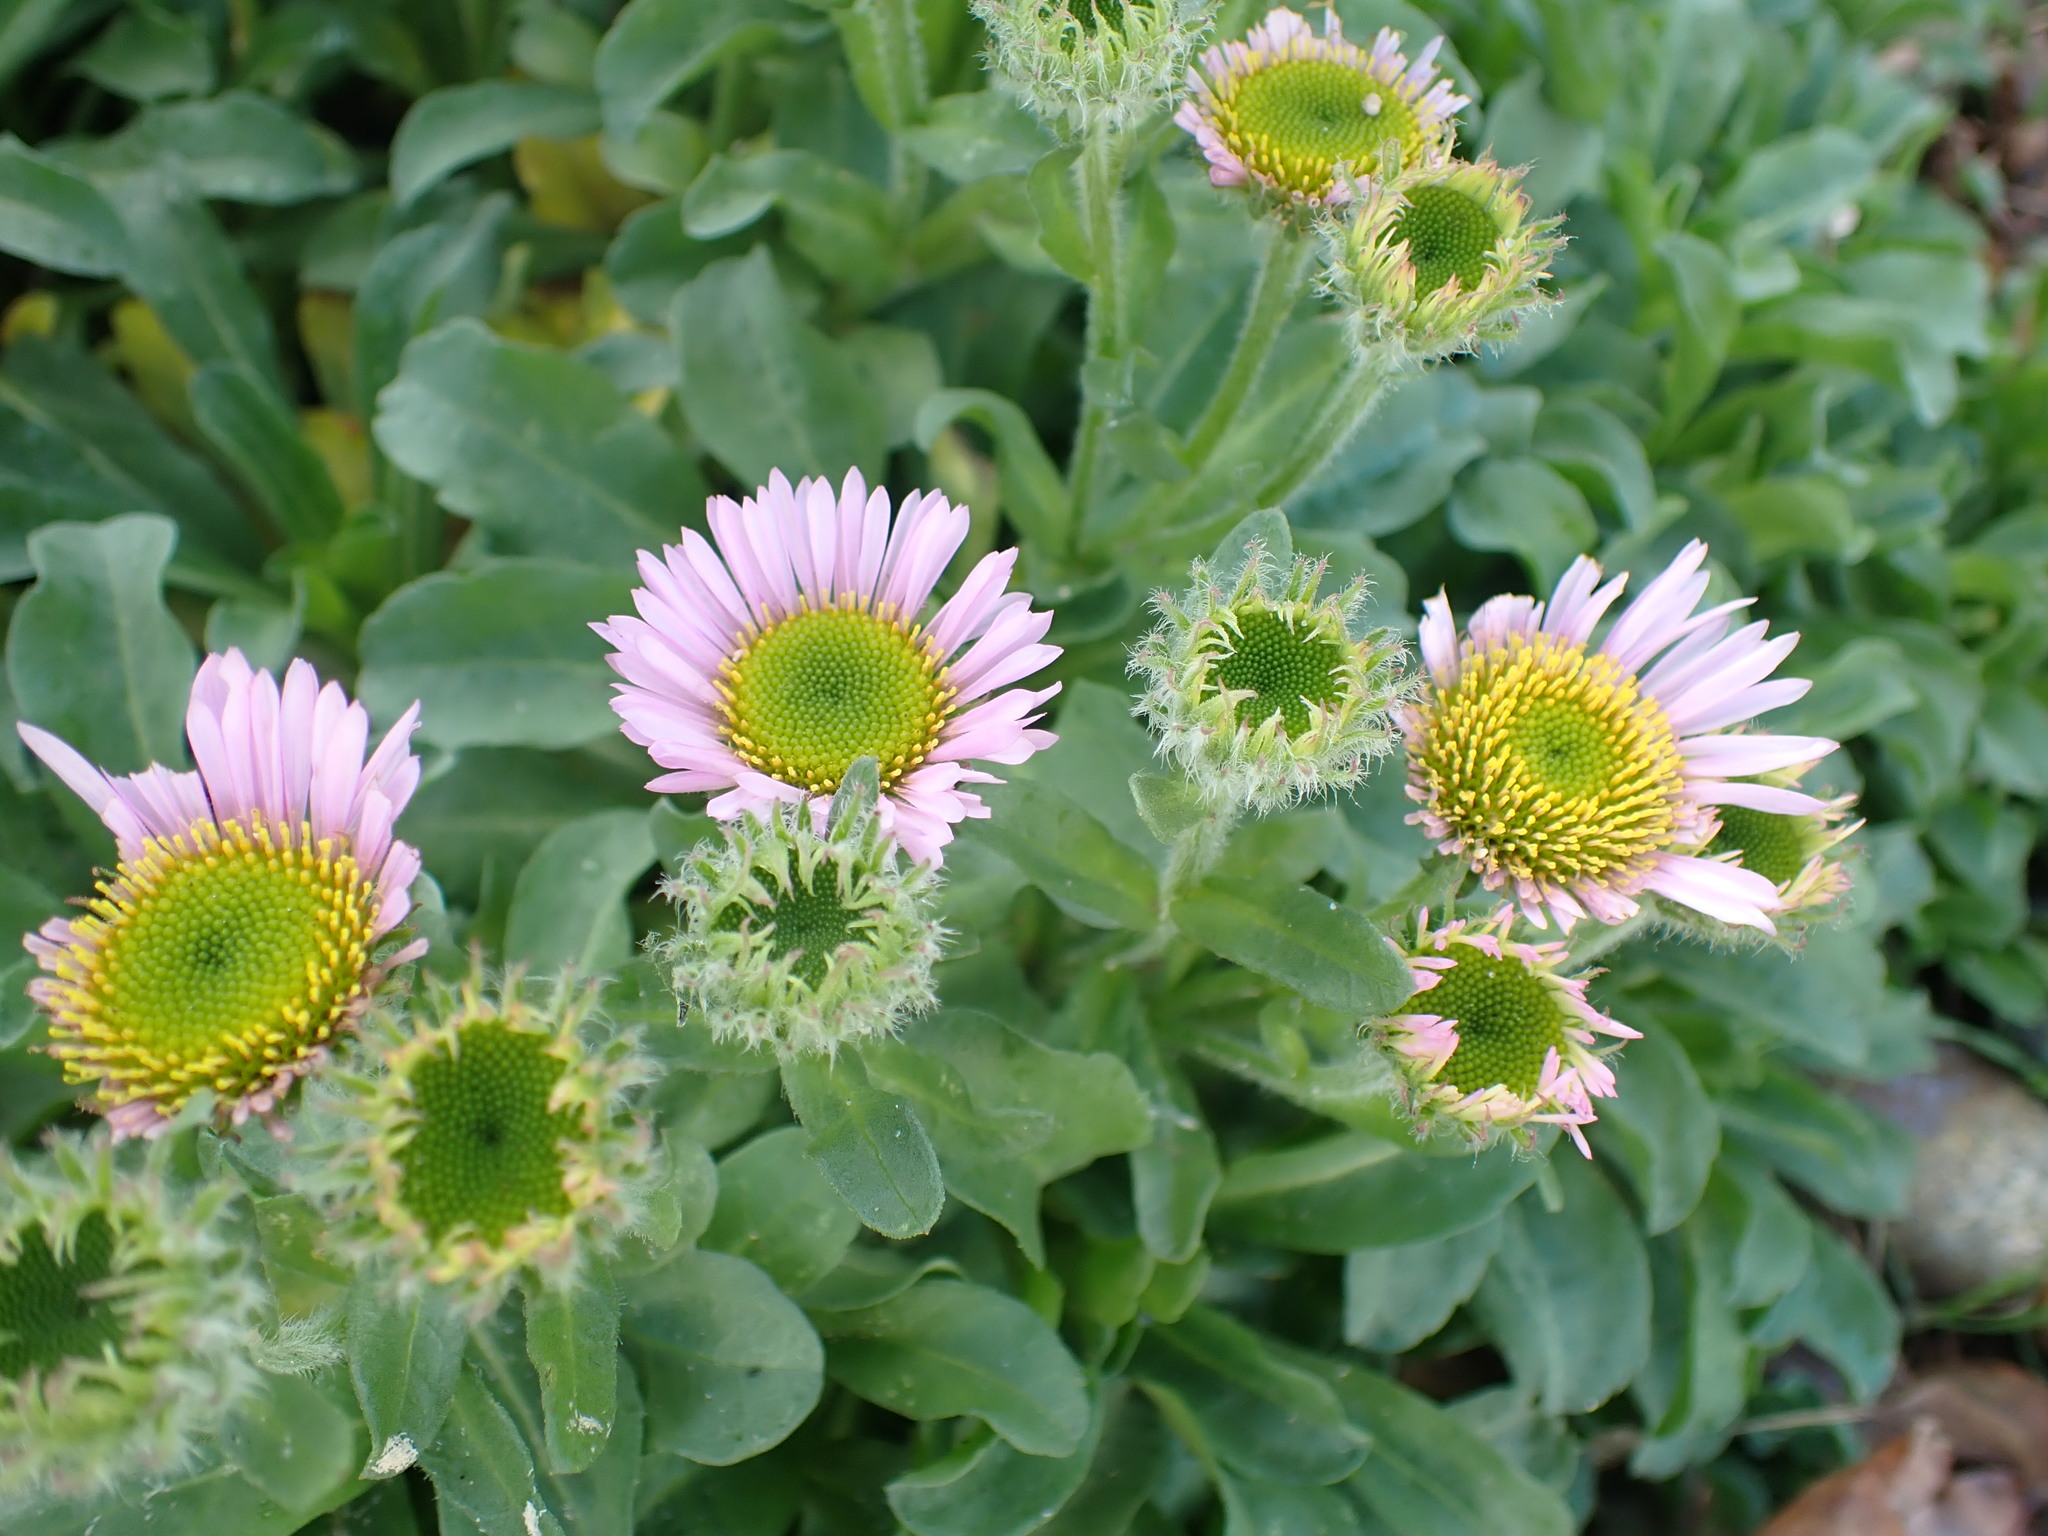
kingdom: Plantae
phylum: Tracheophyta
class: Magnoliopsida
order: Asterales
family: Asteraceae
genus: Erigeron
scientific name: Erigeron glaucus
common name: Seaside daisy
